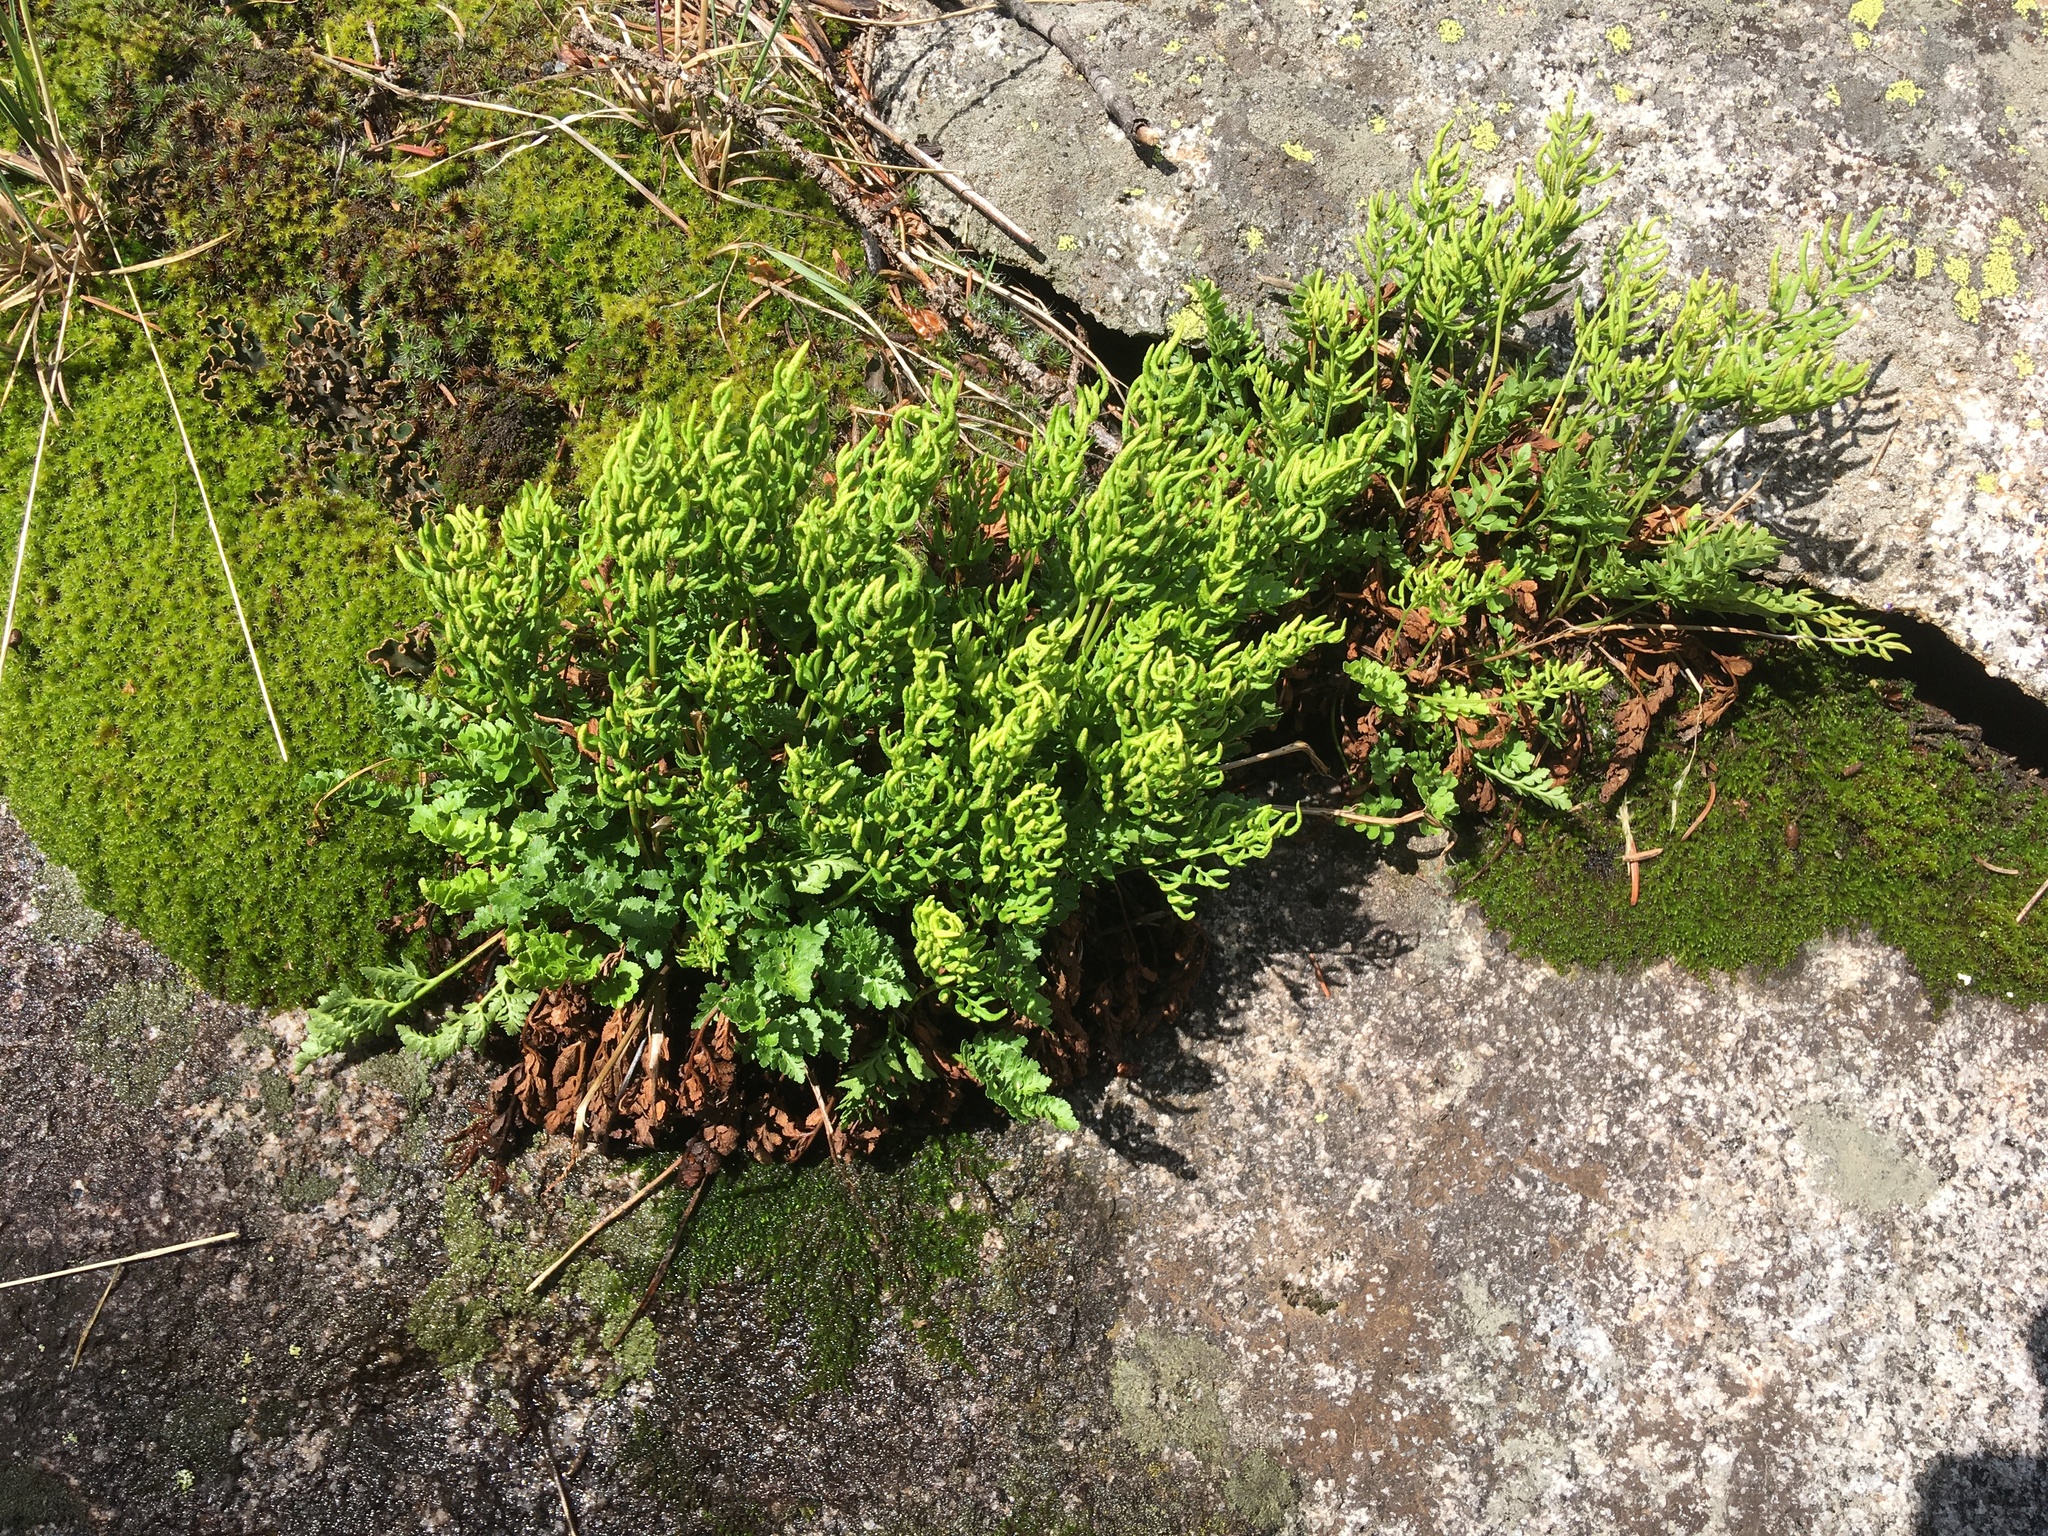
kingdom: Plantae
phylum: Tracheophyta
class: Polypodiopsida
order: Polypodiales
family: Pteridaceae
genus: Cryptogramma
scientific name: Cryptogramma acrostichoides
